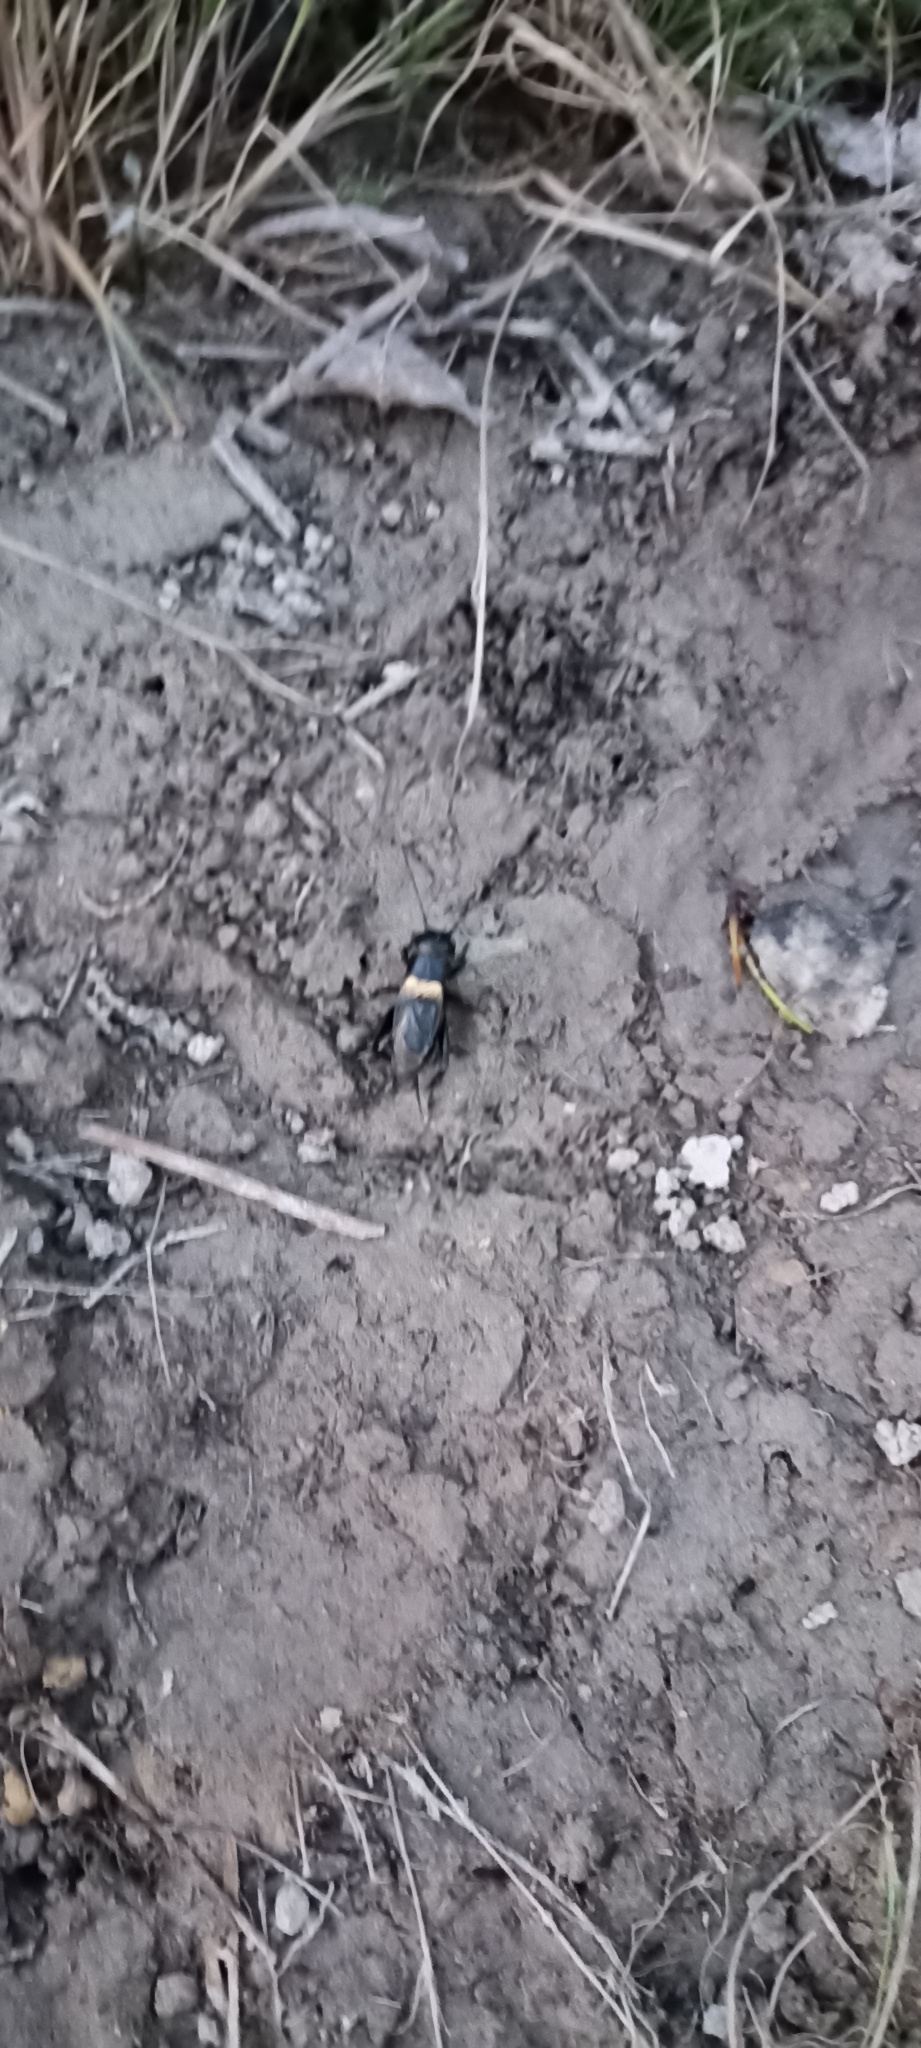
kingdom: Animalia
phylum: Arthropoda
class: Insecta
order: Orthoptera
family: Gryllidae
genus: Gryllus
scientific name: Gryllus campestris
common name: Field cricket
